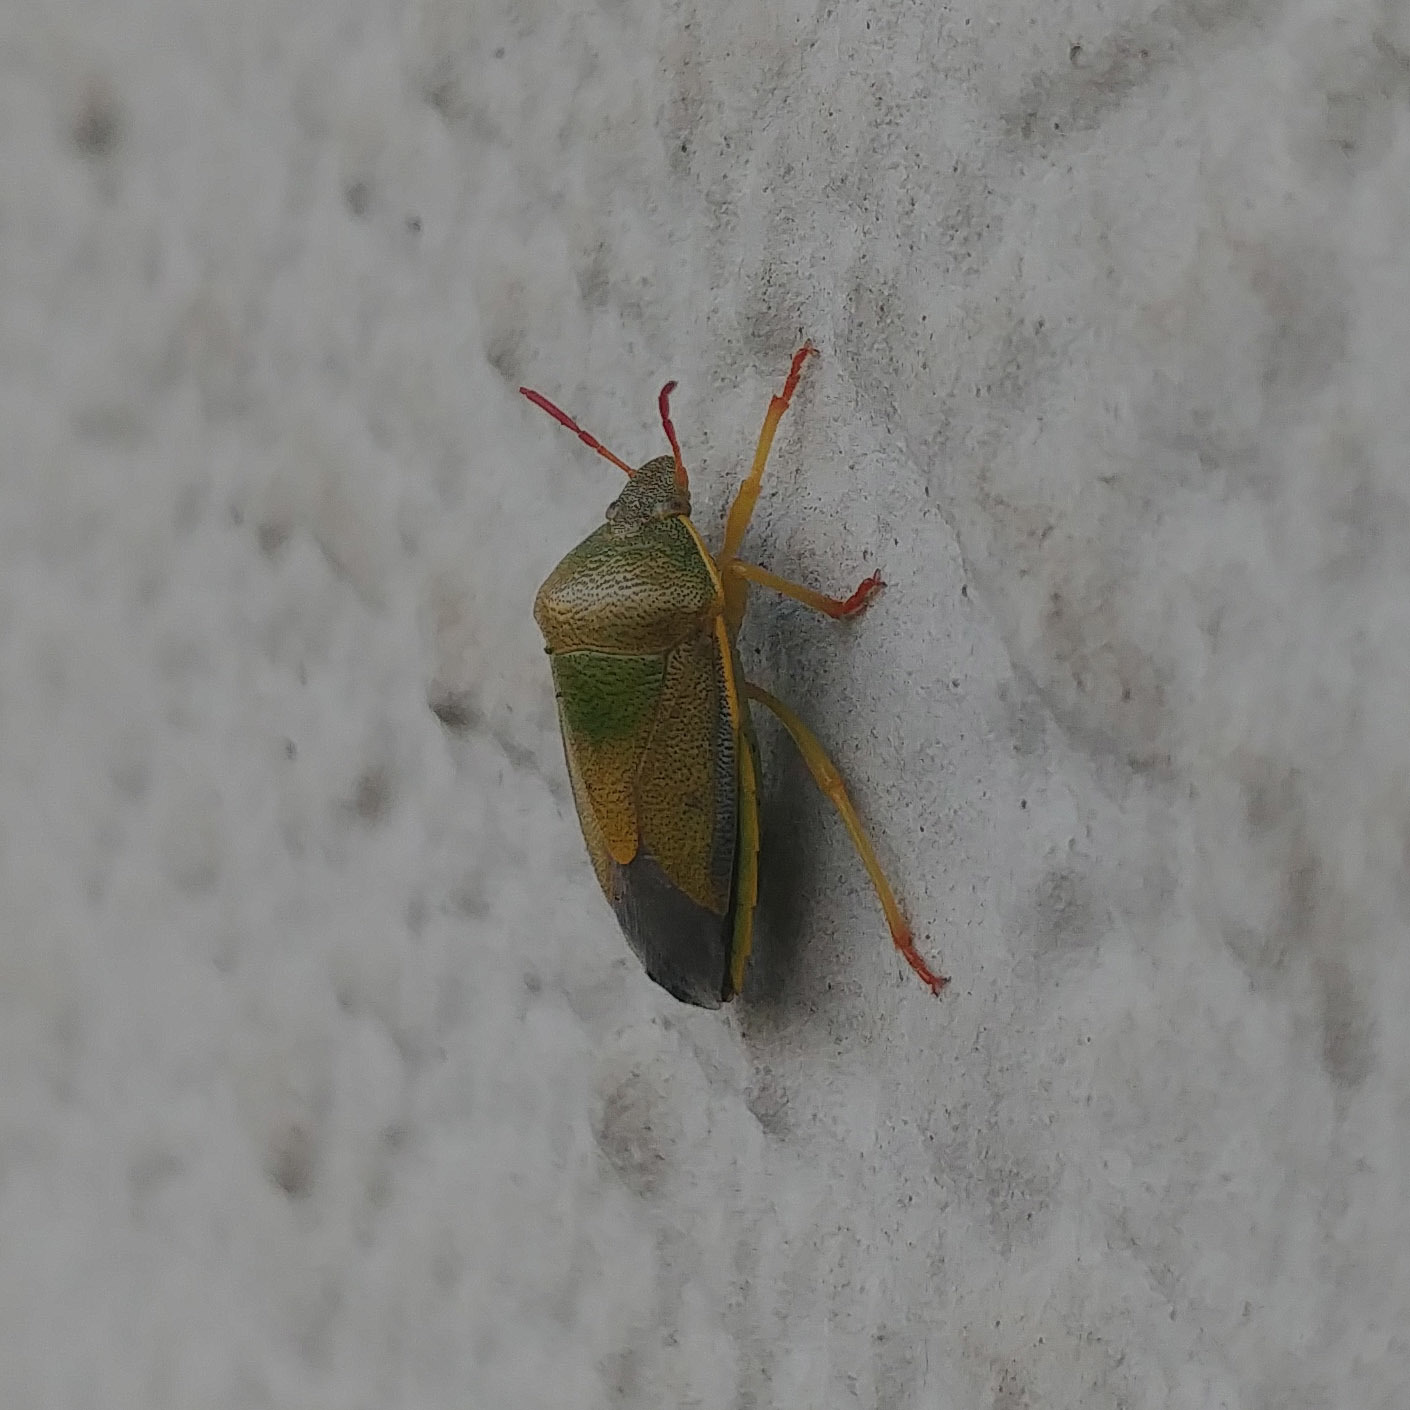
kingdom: Animalia
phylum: Arthropoda
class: Insecta
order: Hemiptera
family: Pentatomidae
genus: Piezodorus
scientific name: Piezodorus lituratus
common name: Stink bug
